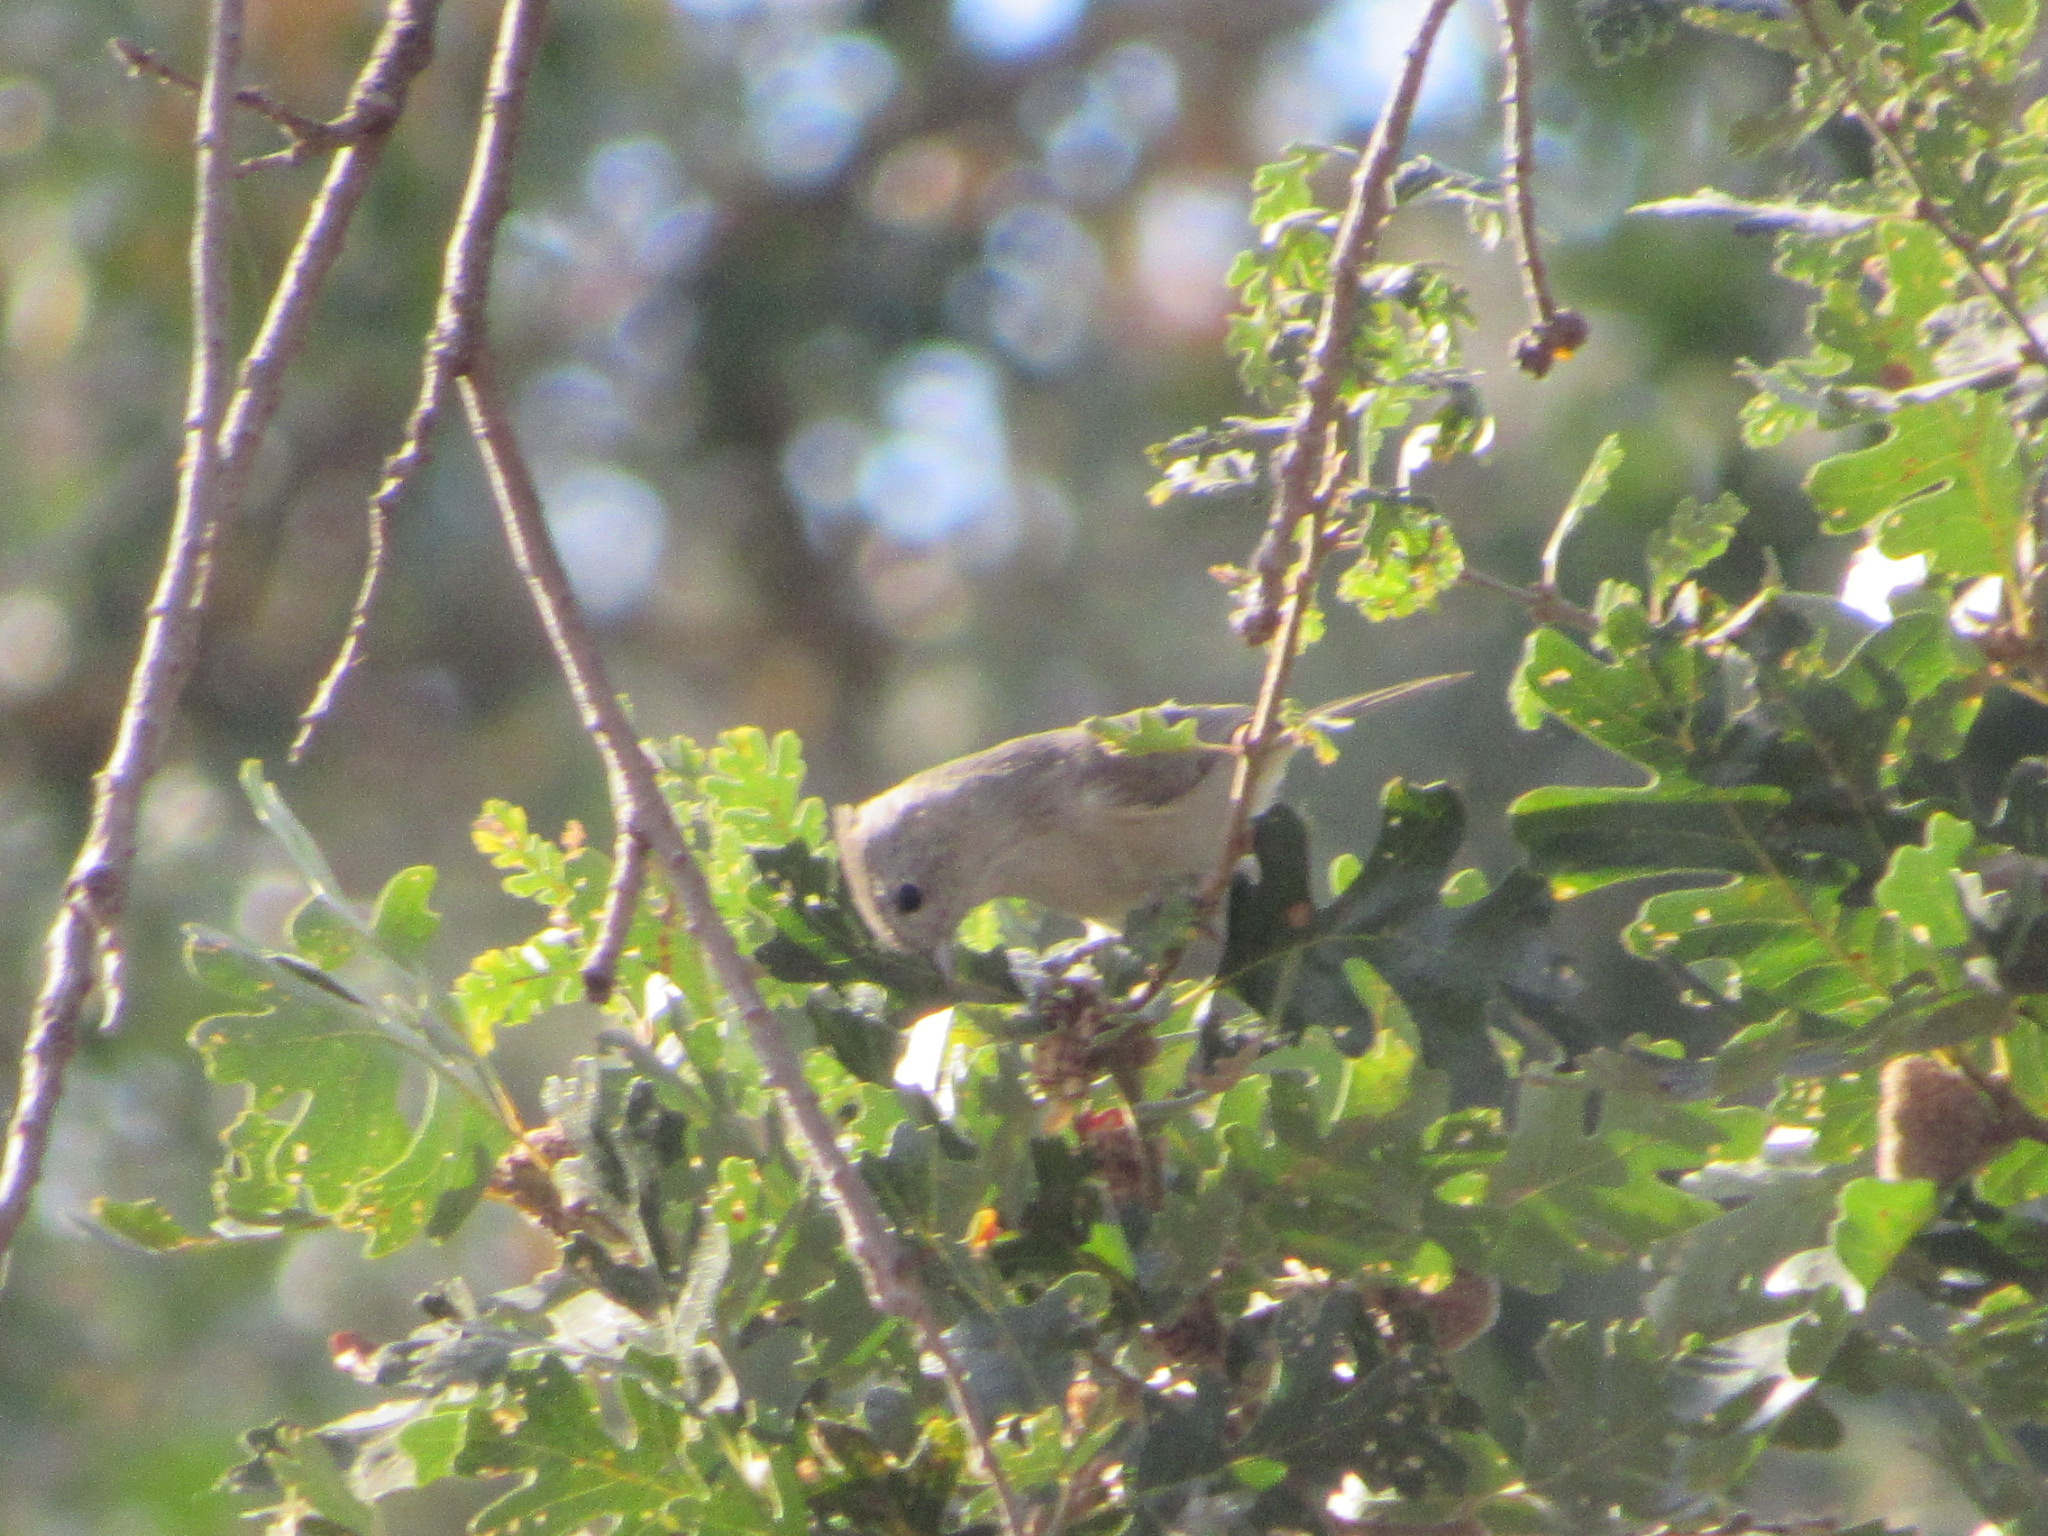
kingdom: Animalia
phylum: Chordata
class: Aves
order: Passeriformes
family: Paridae
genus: Baeolophus
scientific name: Baeolophus inornatus
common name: Oak titmouse
